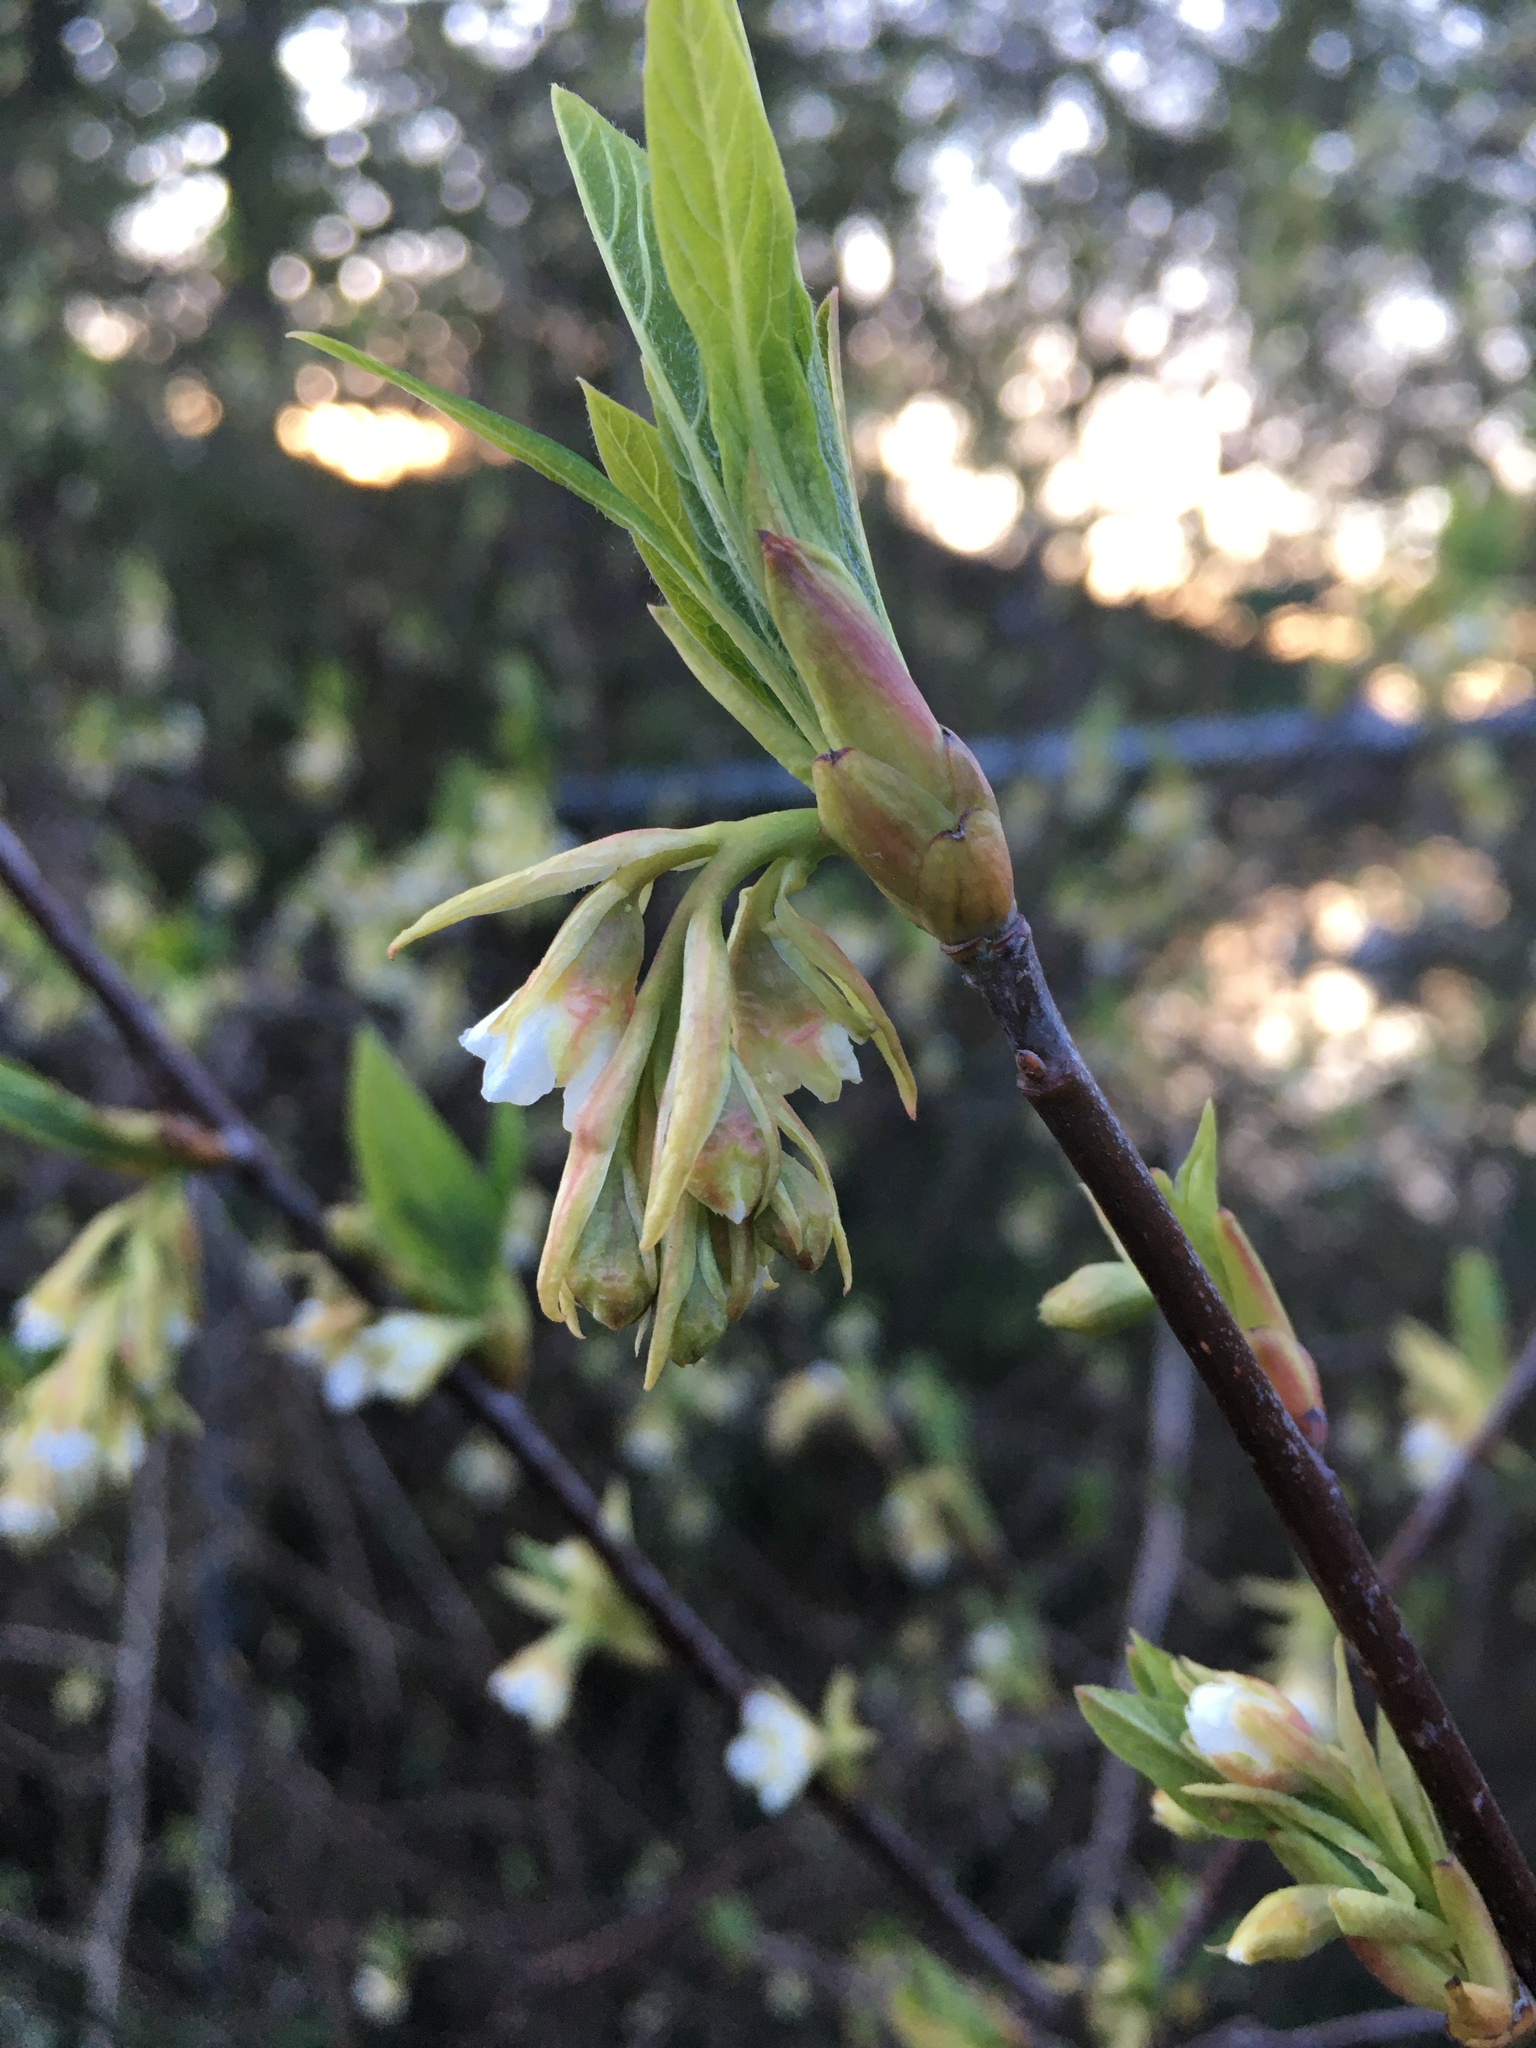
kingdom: Plantae
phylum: Tracheophyta
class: Magnoliopsida
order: Rosales
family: Rosaceae
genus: Oemleria
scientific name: Oemleria cerasiformis
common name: Osoberry
